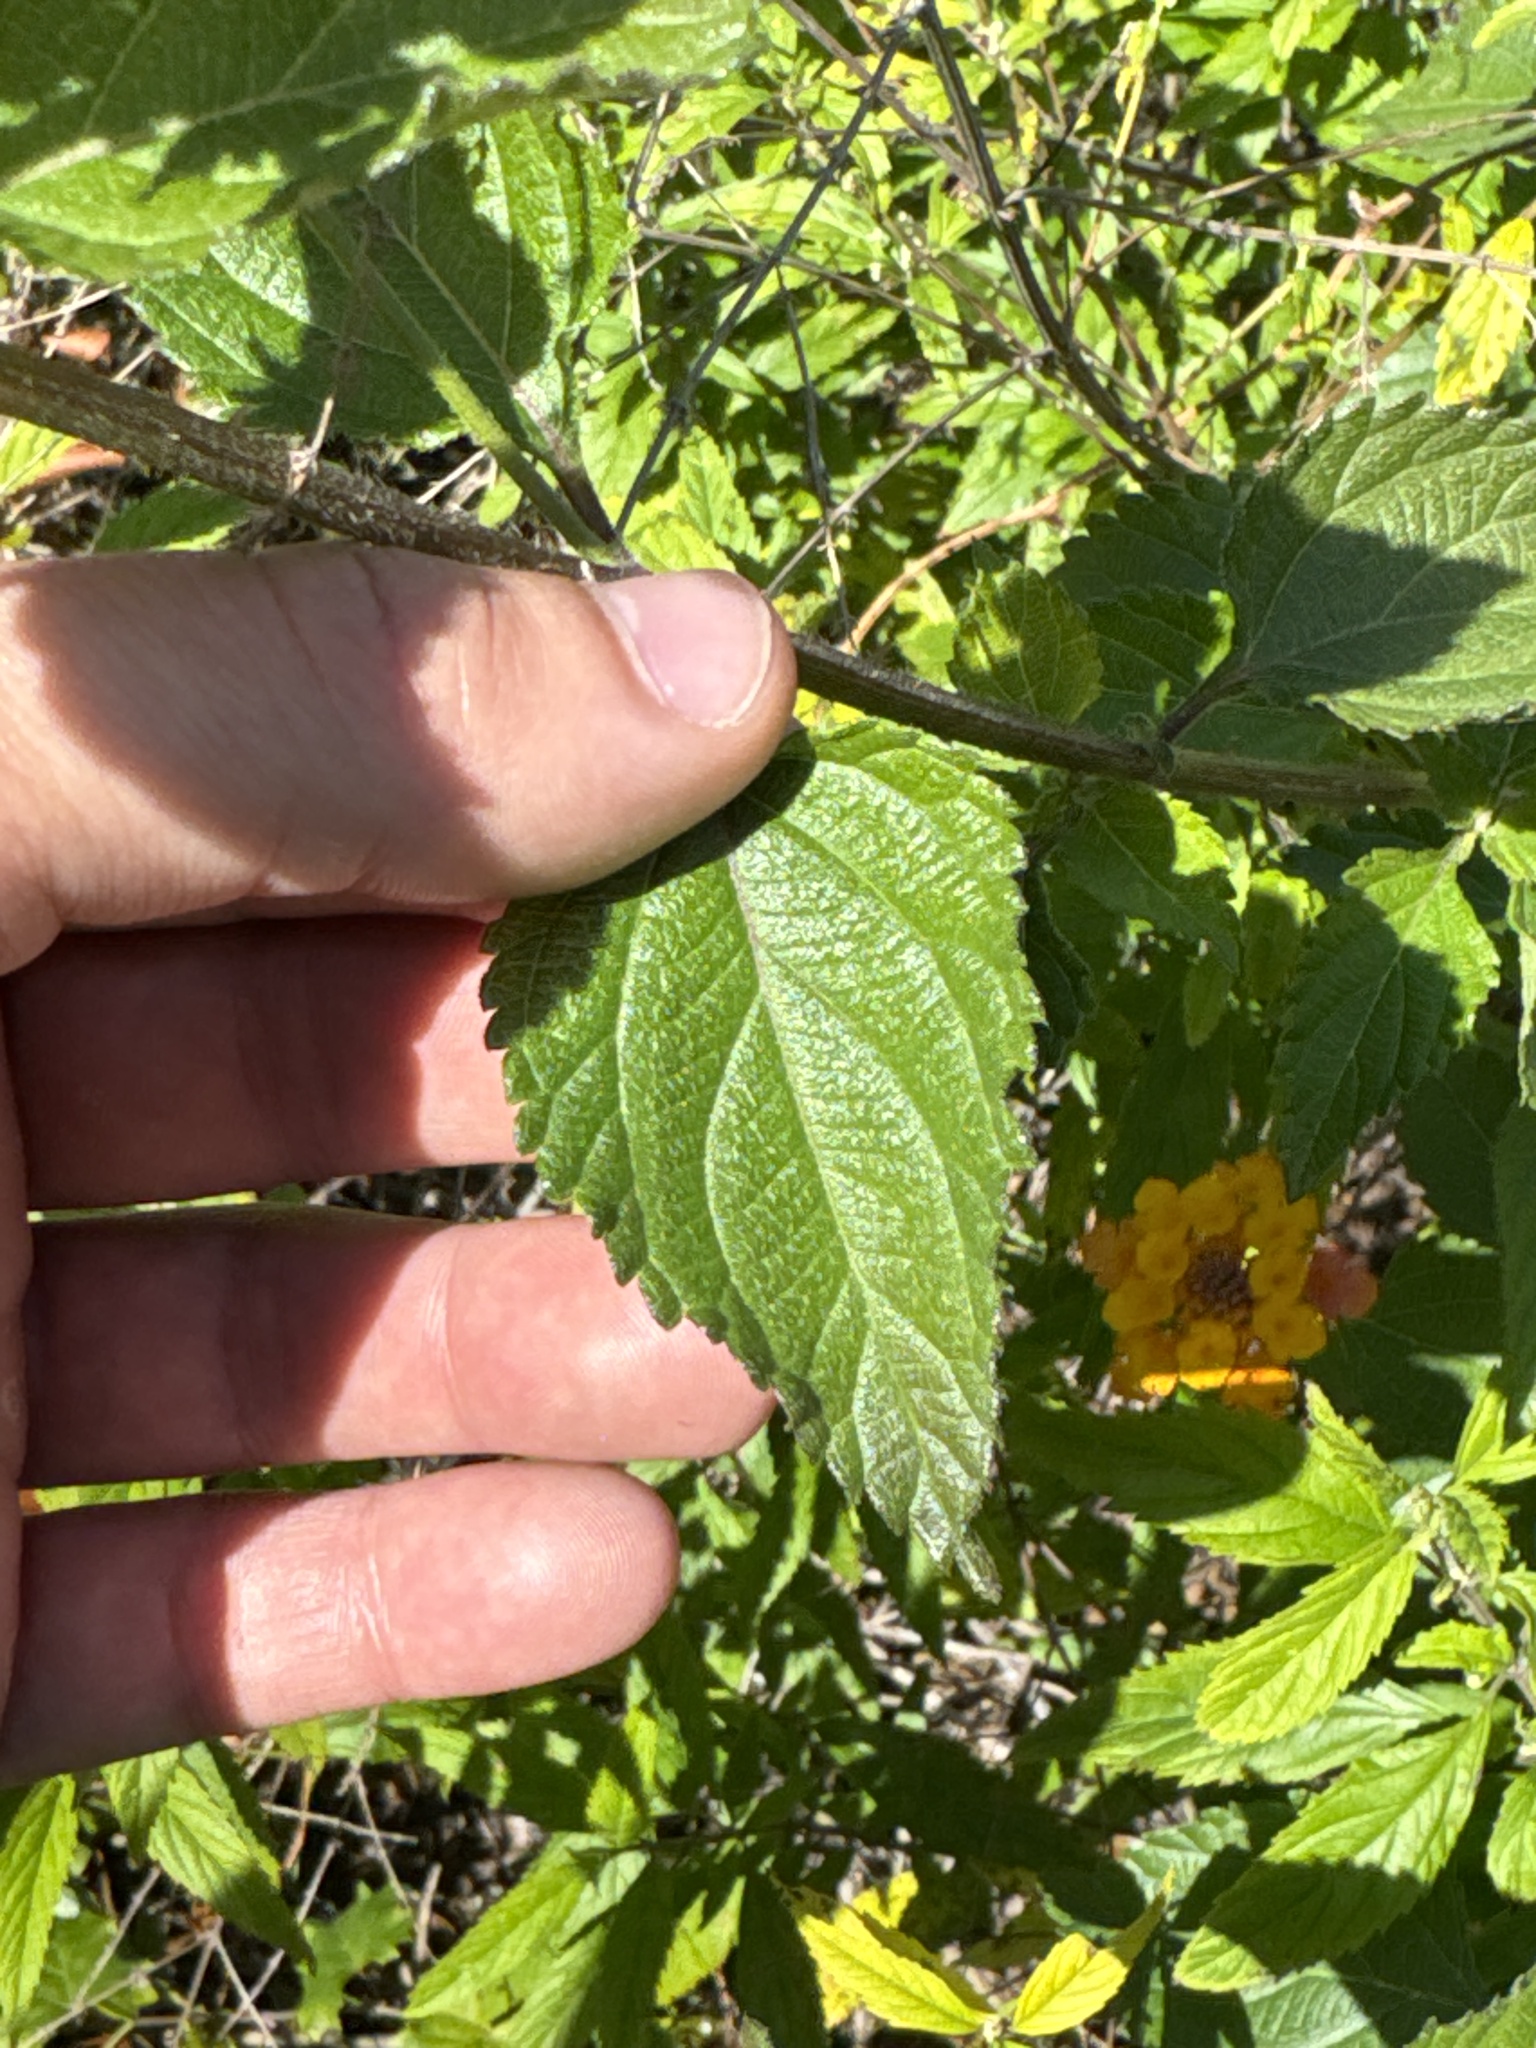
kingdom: Plantae
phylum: Tracheophyta
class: Magnoliopsida
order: Lamiales
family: Verbenaceae
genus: Lantana
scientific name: Lantana strigocamara
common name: Lantana
